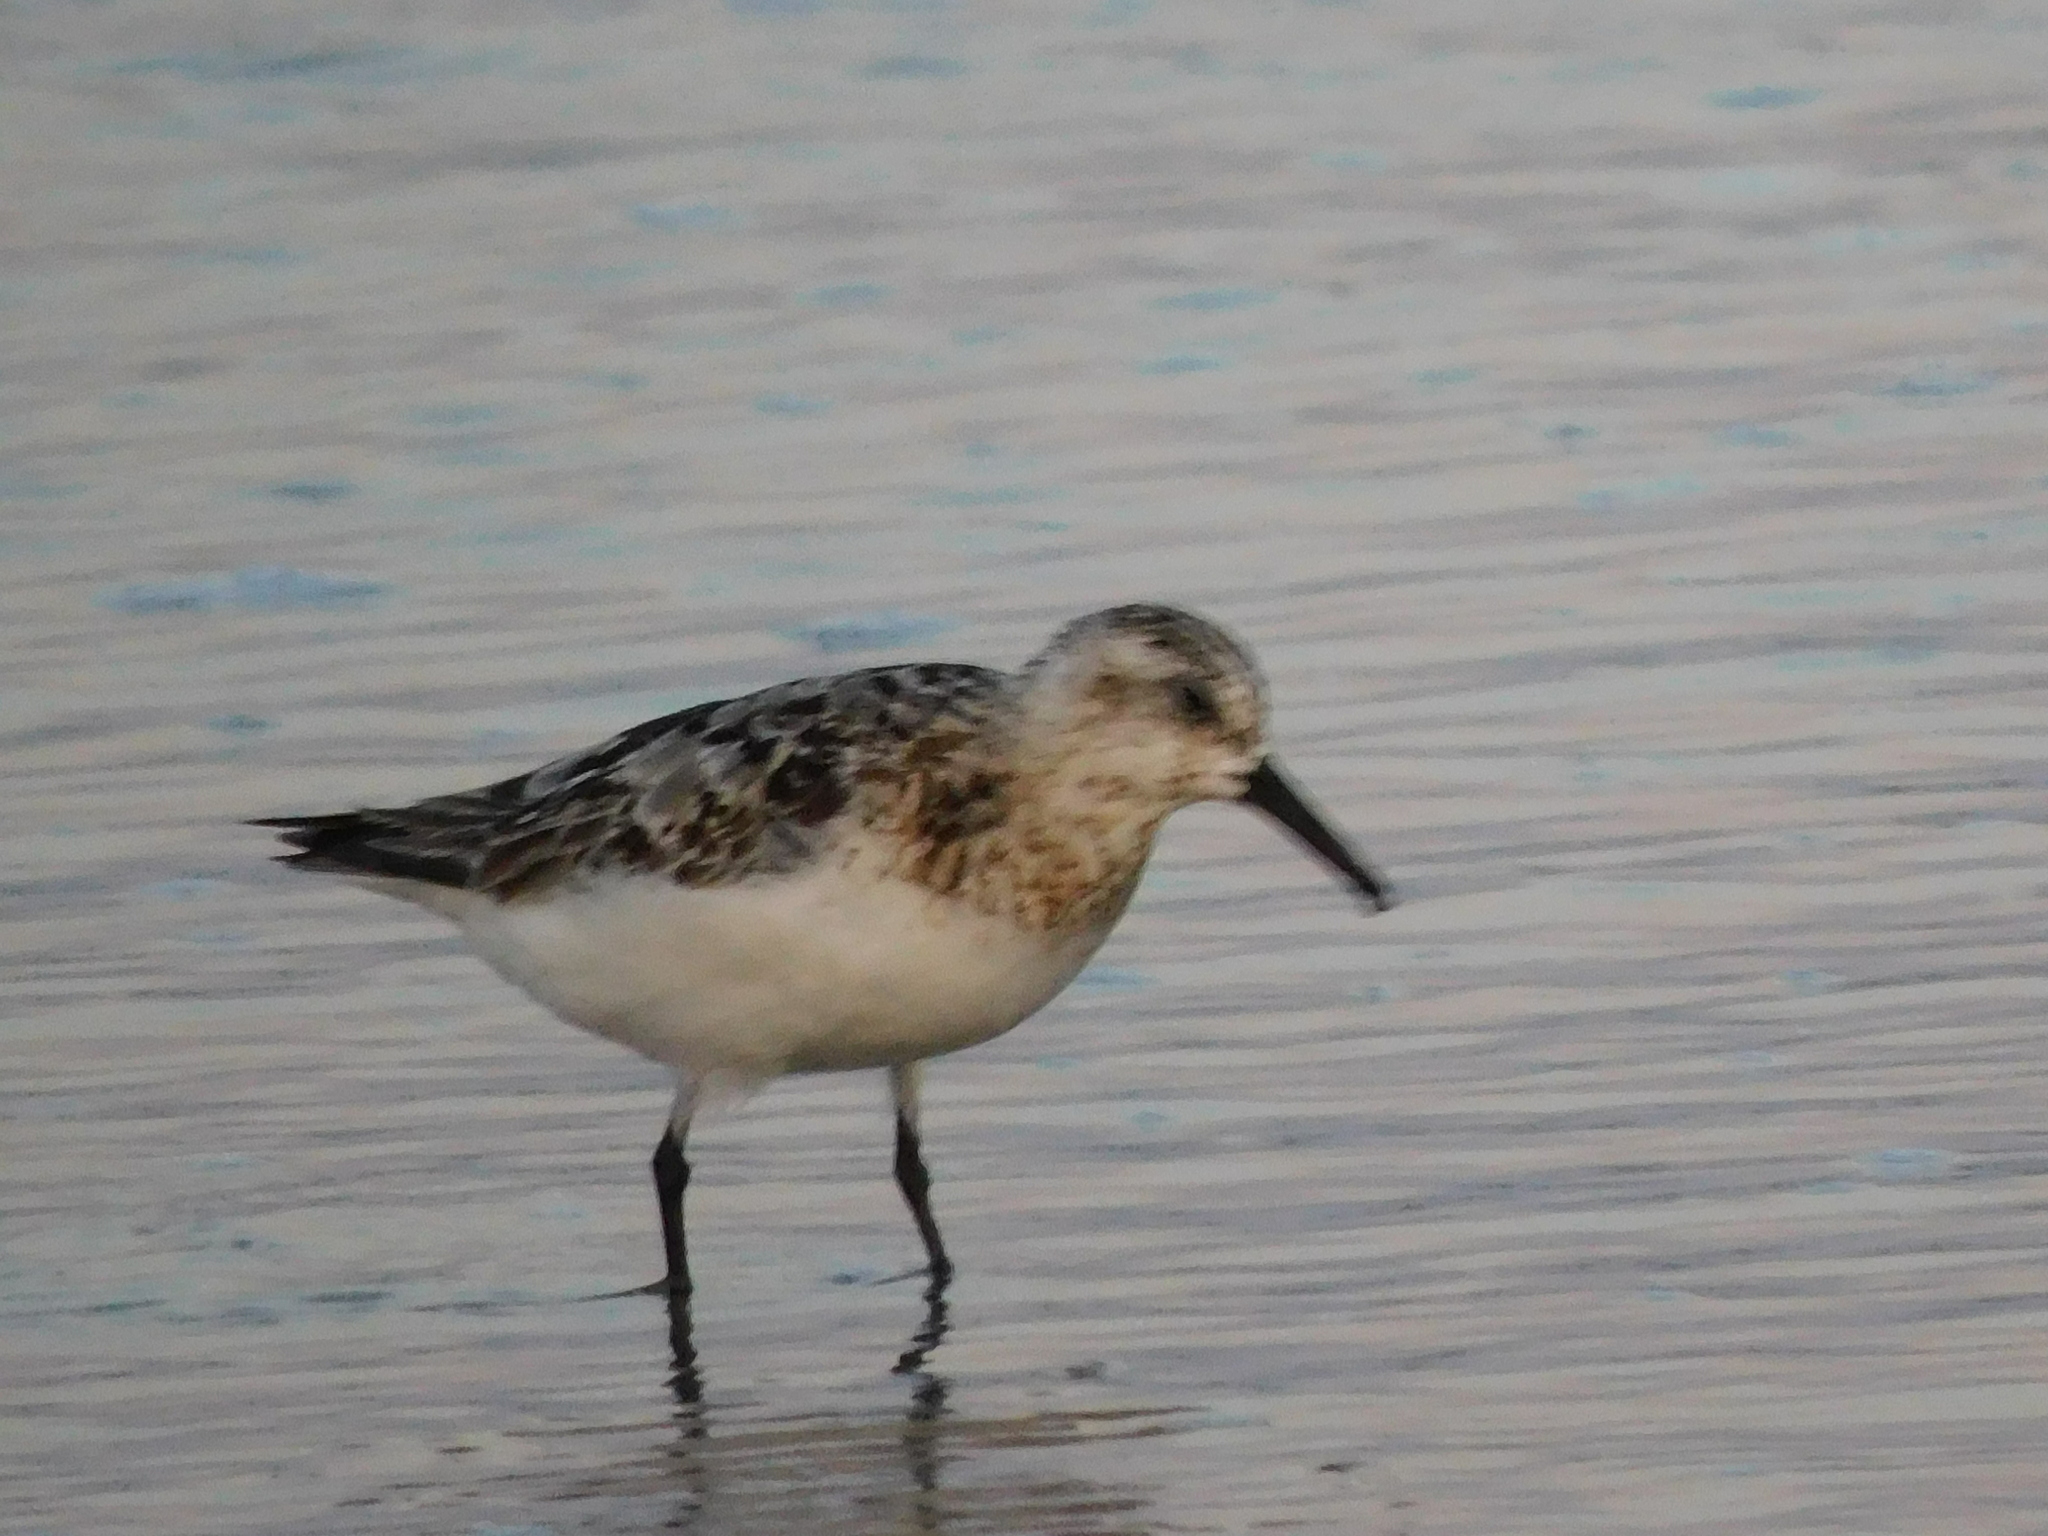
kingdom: Animalia
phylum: Chordata
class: Aves
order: Charadriiformes
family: Scolopacidae
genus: Calidris
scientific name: Calidris alba
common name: Sanderling
